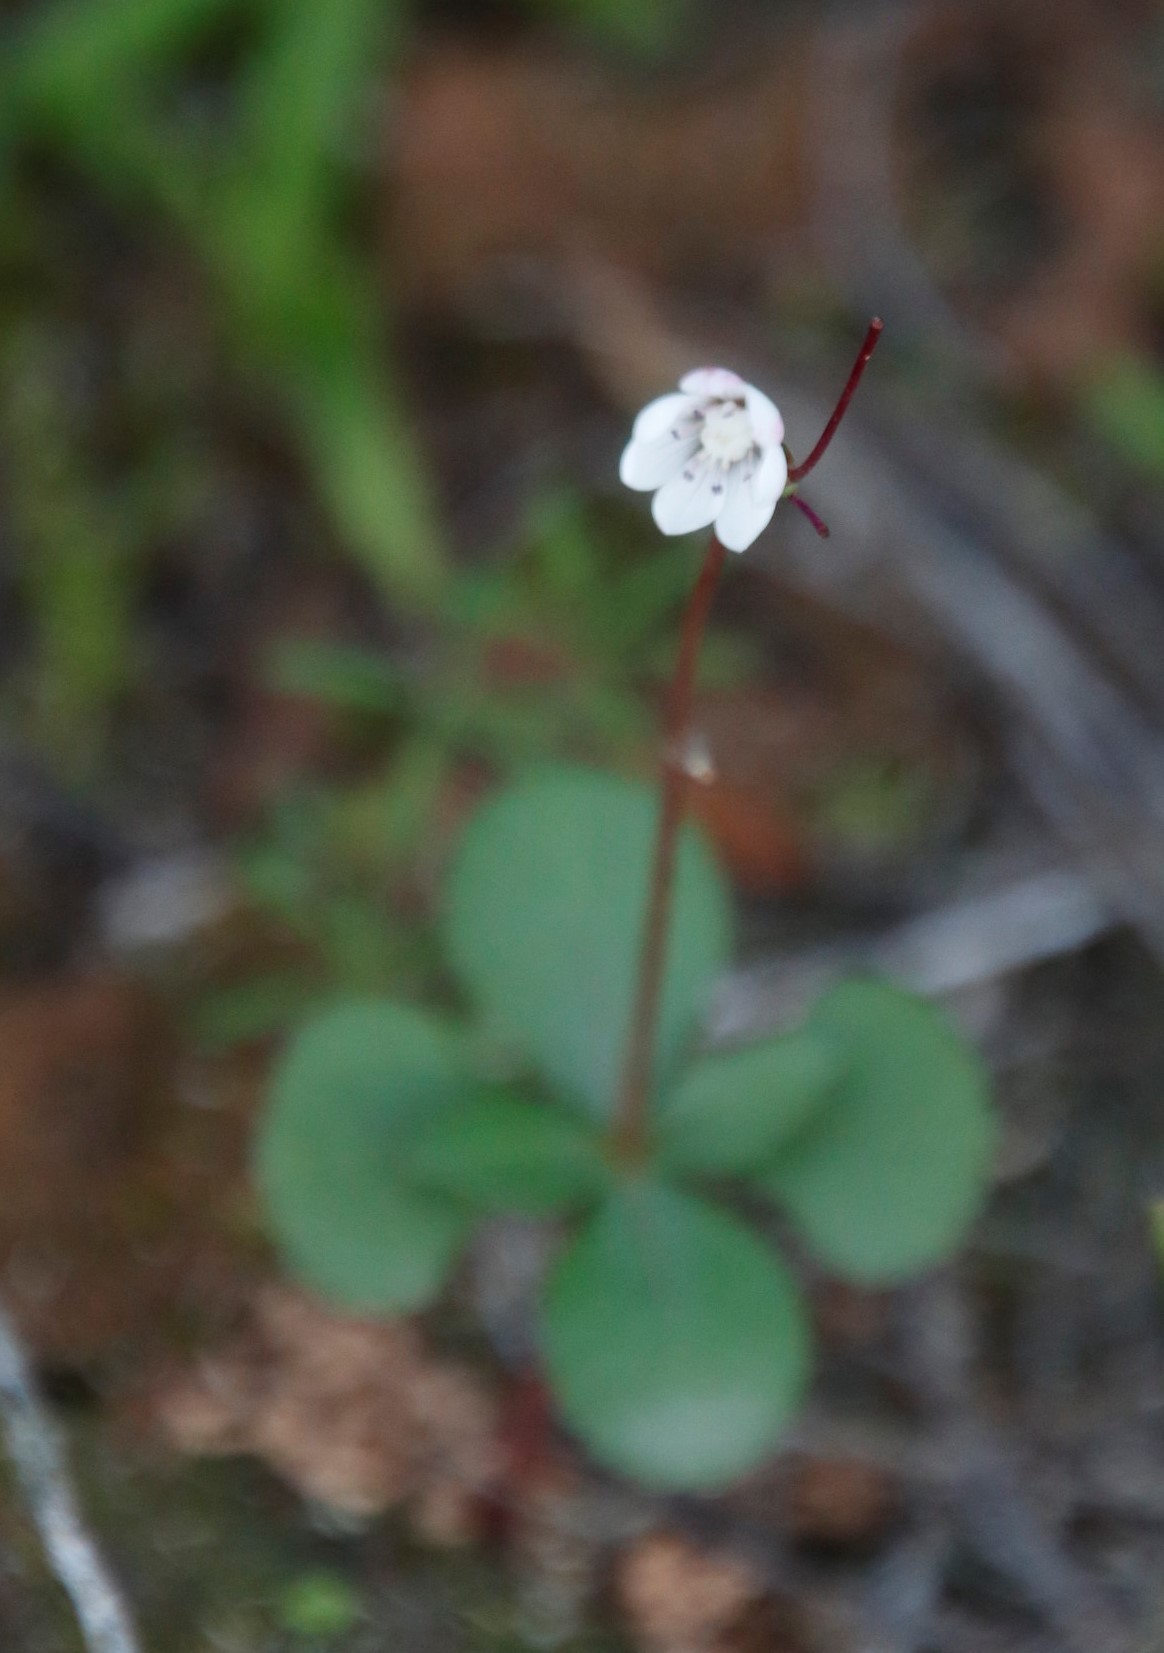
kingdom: Plantae
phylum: Tracheophyta
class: Magnoliopsida
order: Saxifragales
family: Crassulaceae
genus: Crassula
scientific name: Crassula capensis
